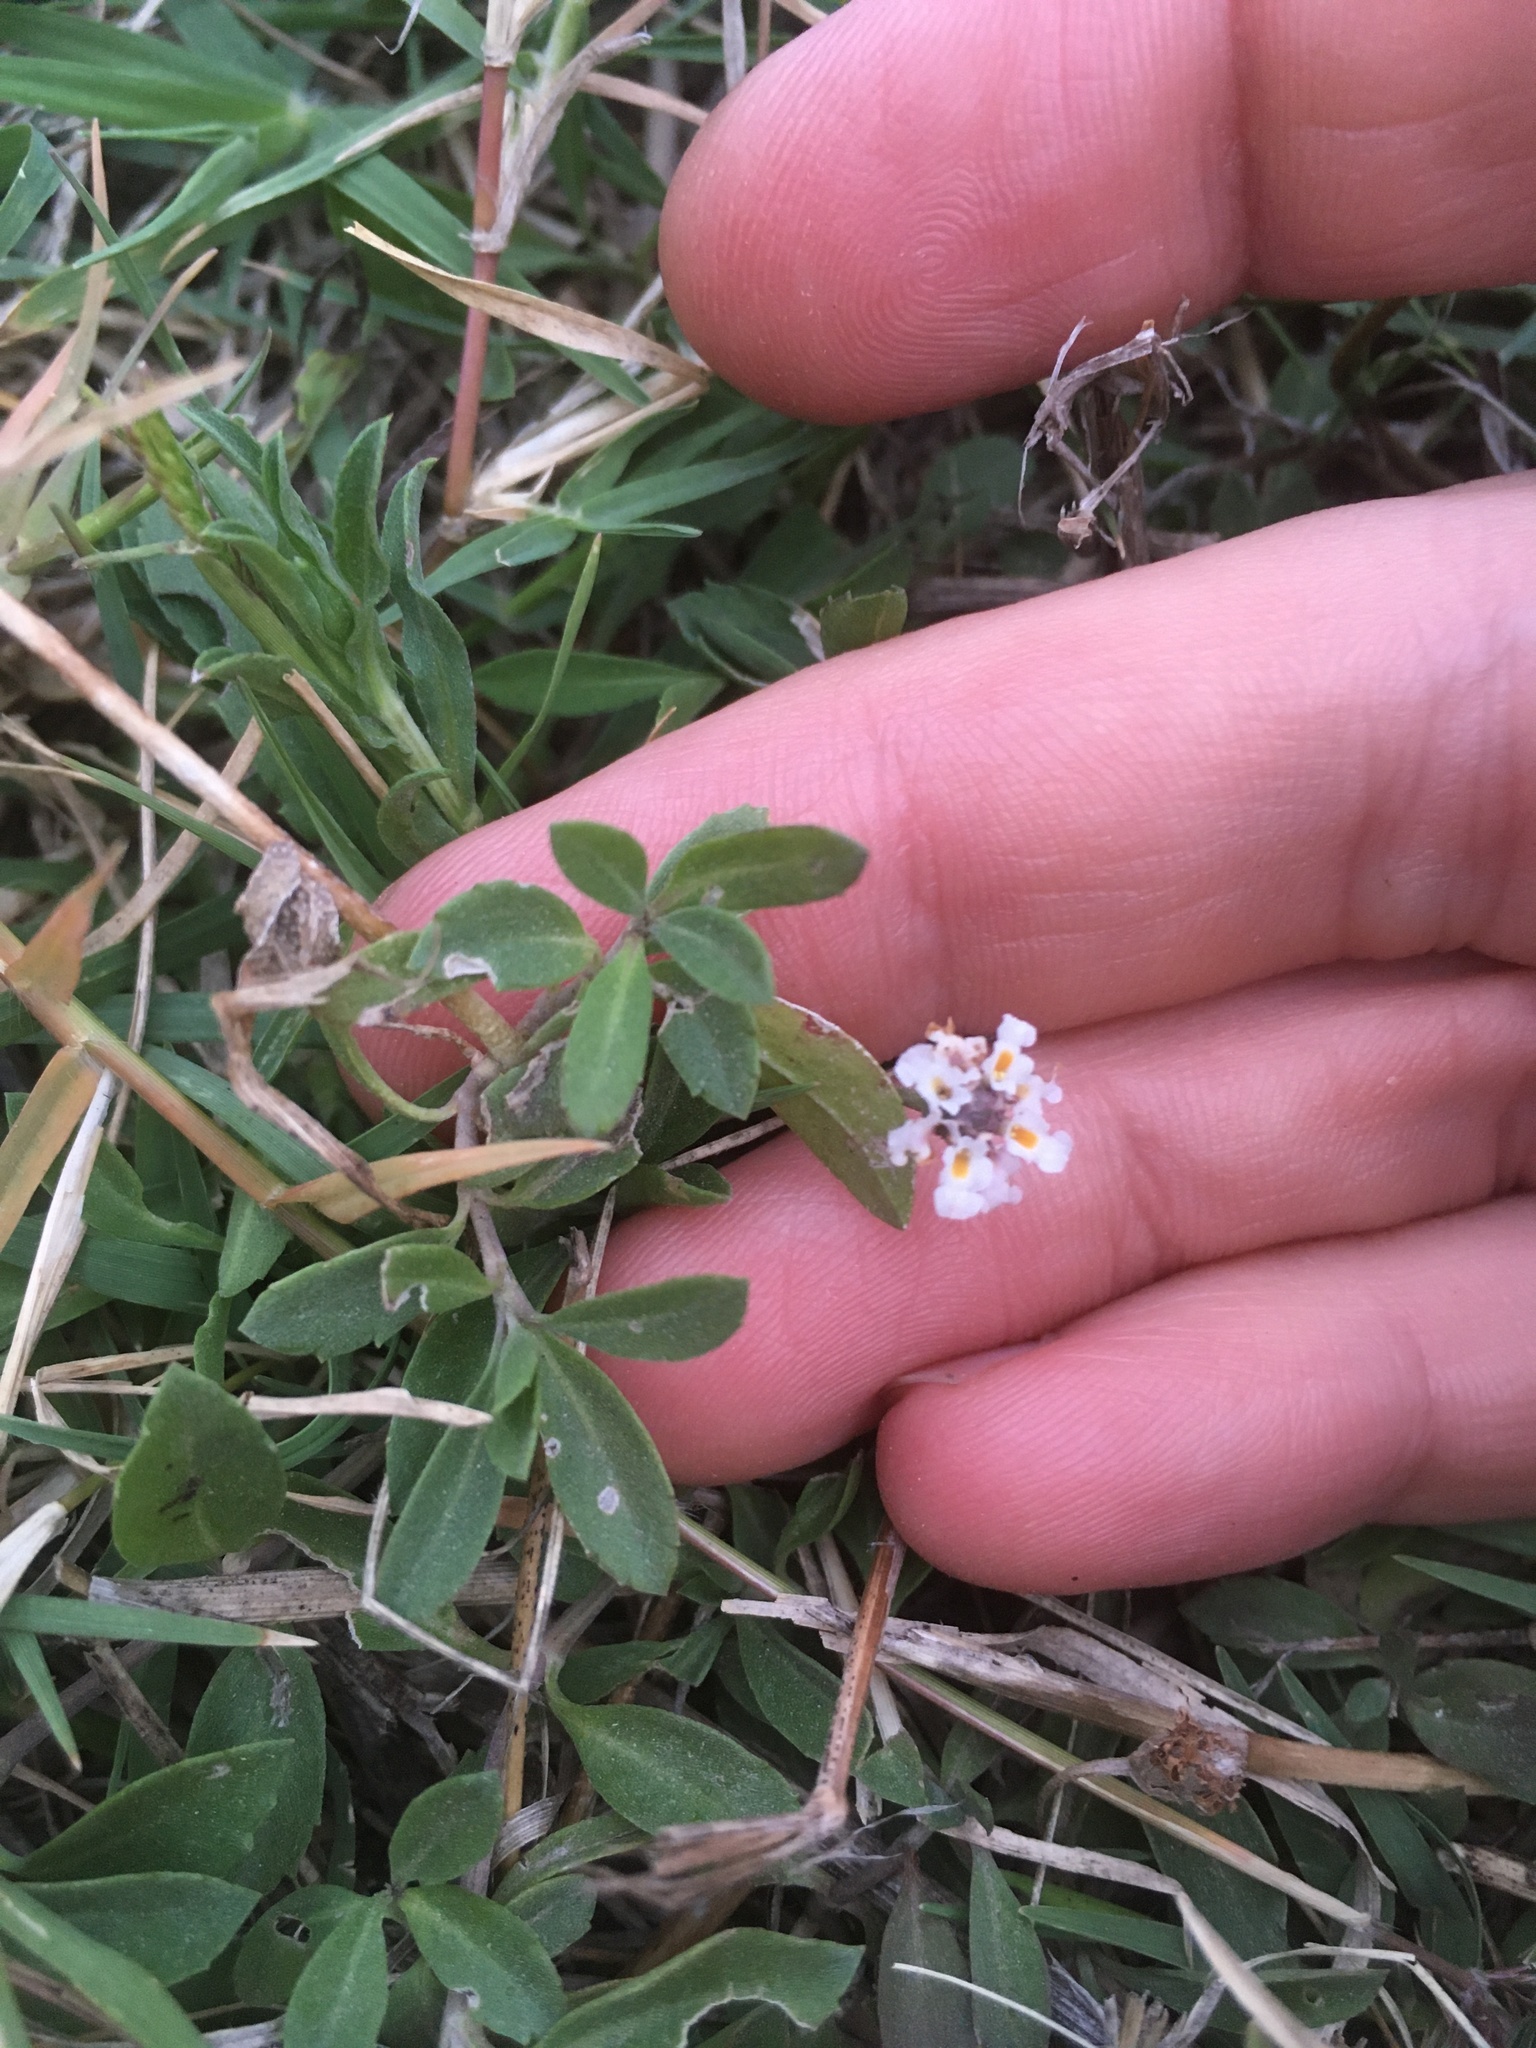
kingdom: Plantae
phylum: Tracheophyta
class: Magnoliopsida
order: Lamiales
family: Verbenaceae
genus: Phyla
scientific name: Phyla nodiflora
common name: Frogfruit
